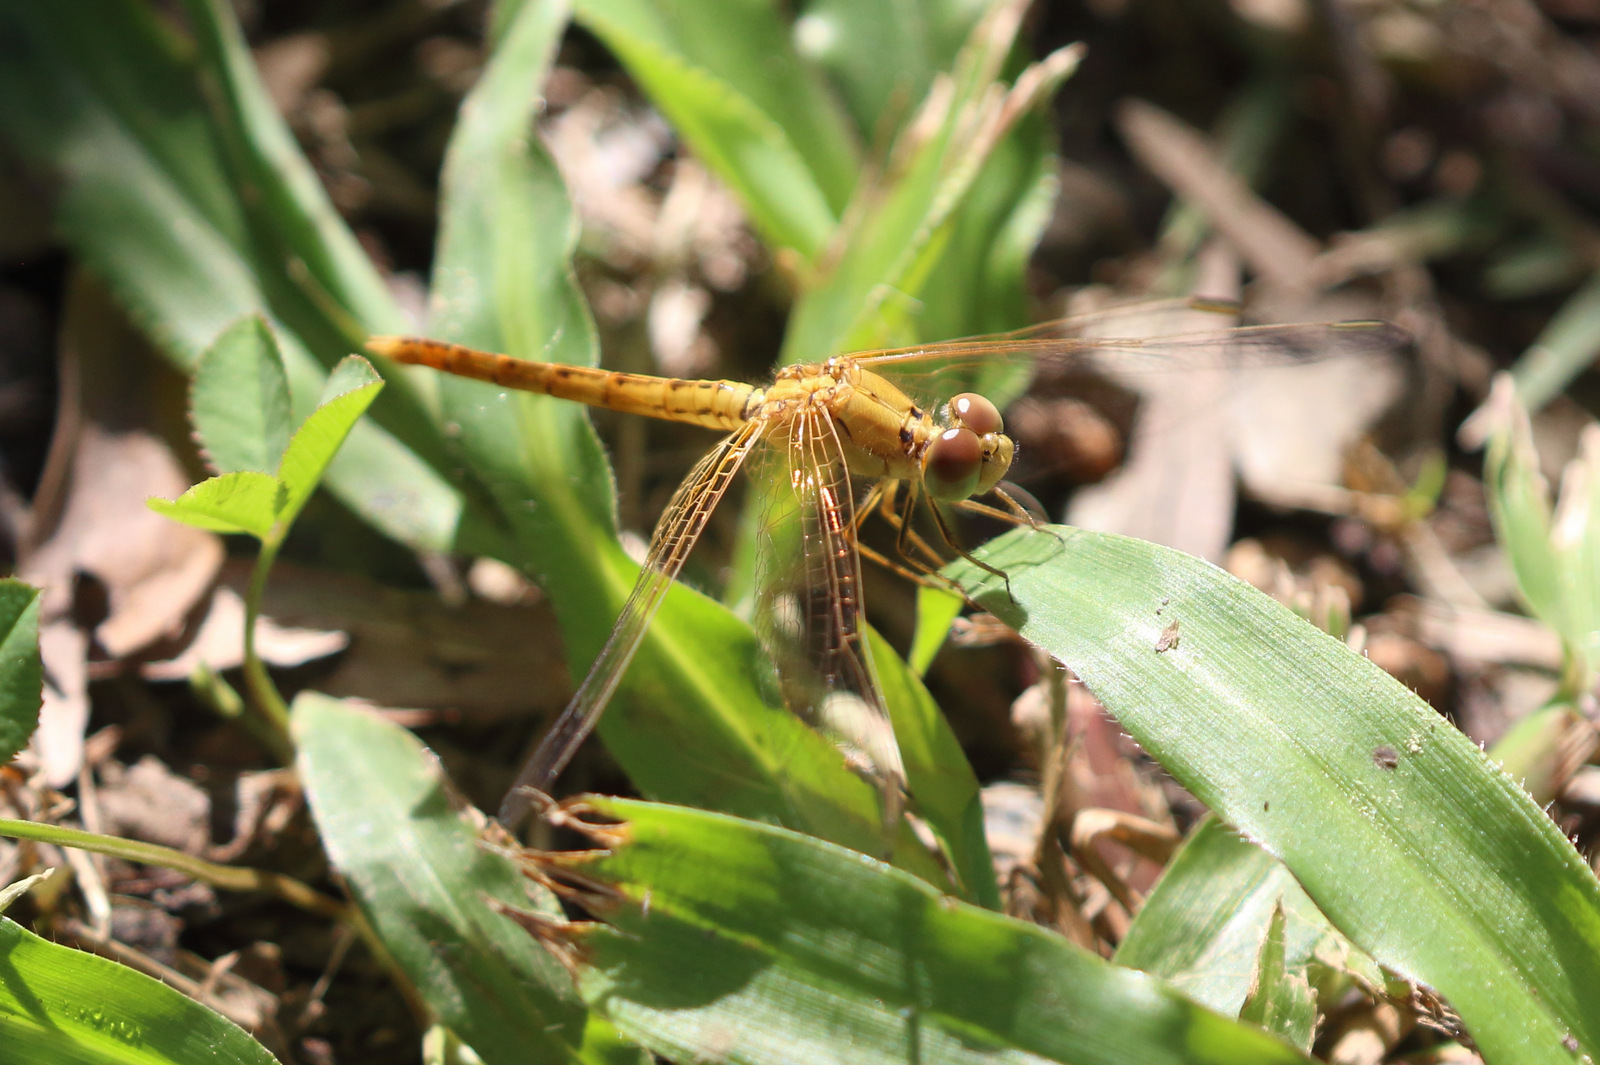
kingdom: Animalia
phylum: Arthropoda
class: Insecta
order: Odonata
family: Libellulidae
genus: Diplacodes
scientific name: Diplacodes haematodes
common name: Scarlet percher
